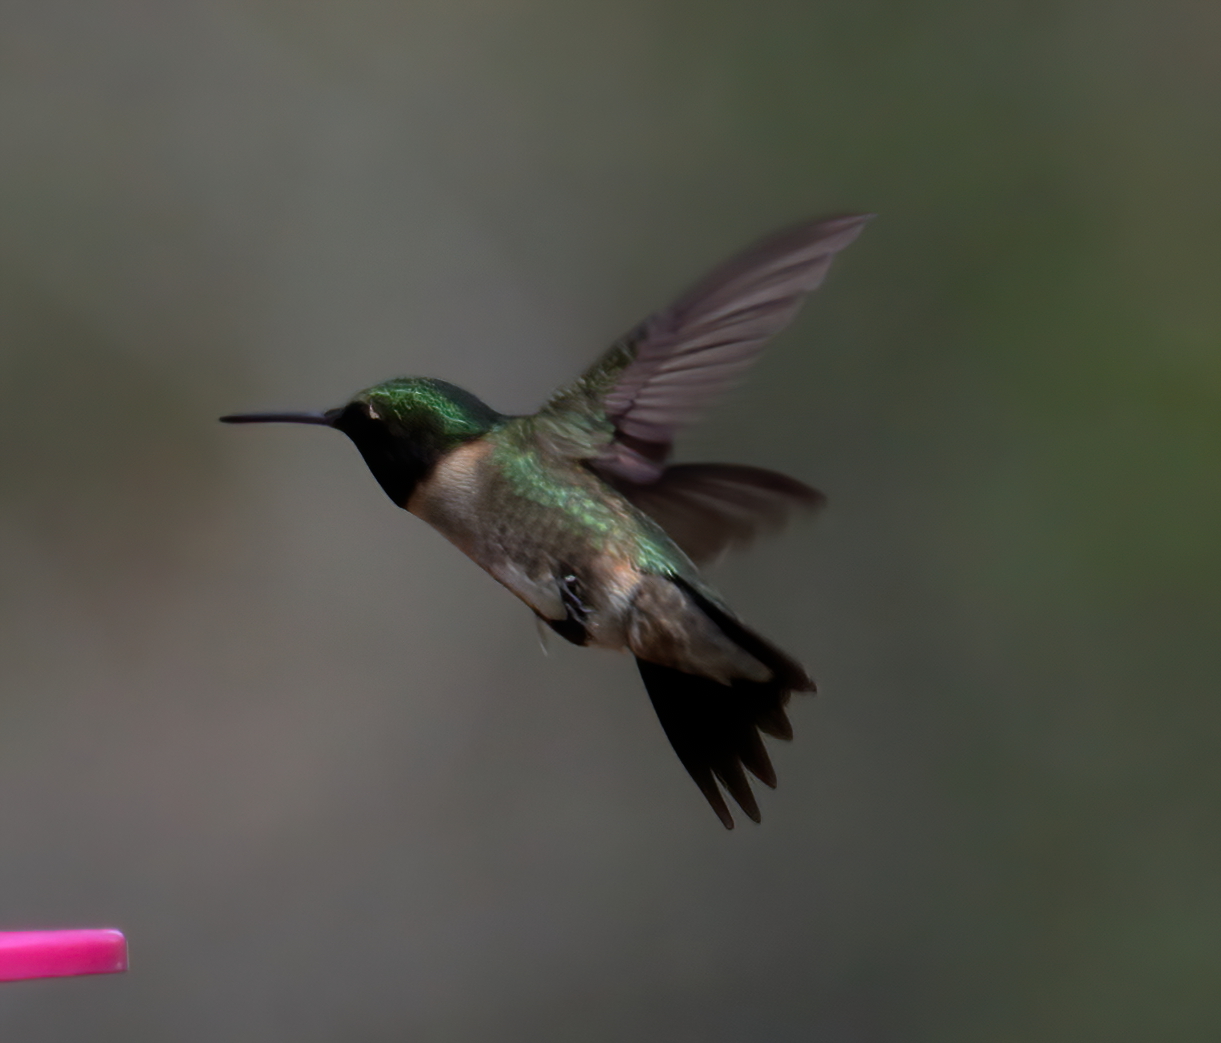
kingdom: Animalia
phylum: Chordata
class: Aves
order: Apodiformes
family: Trochilidae
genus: Archilochus
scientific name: Archilochus colubris
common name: Ruby-throated hummingbird
